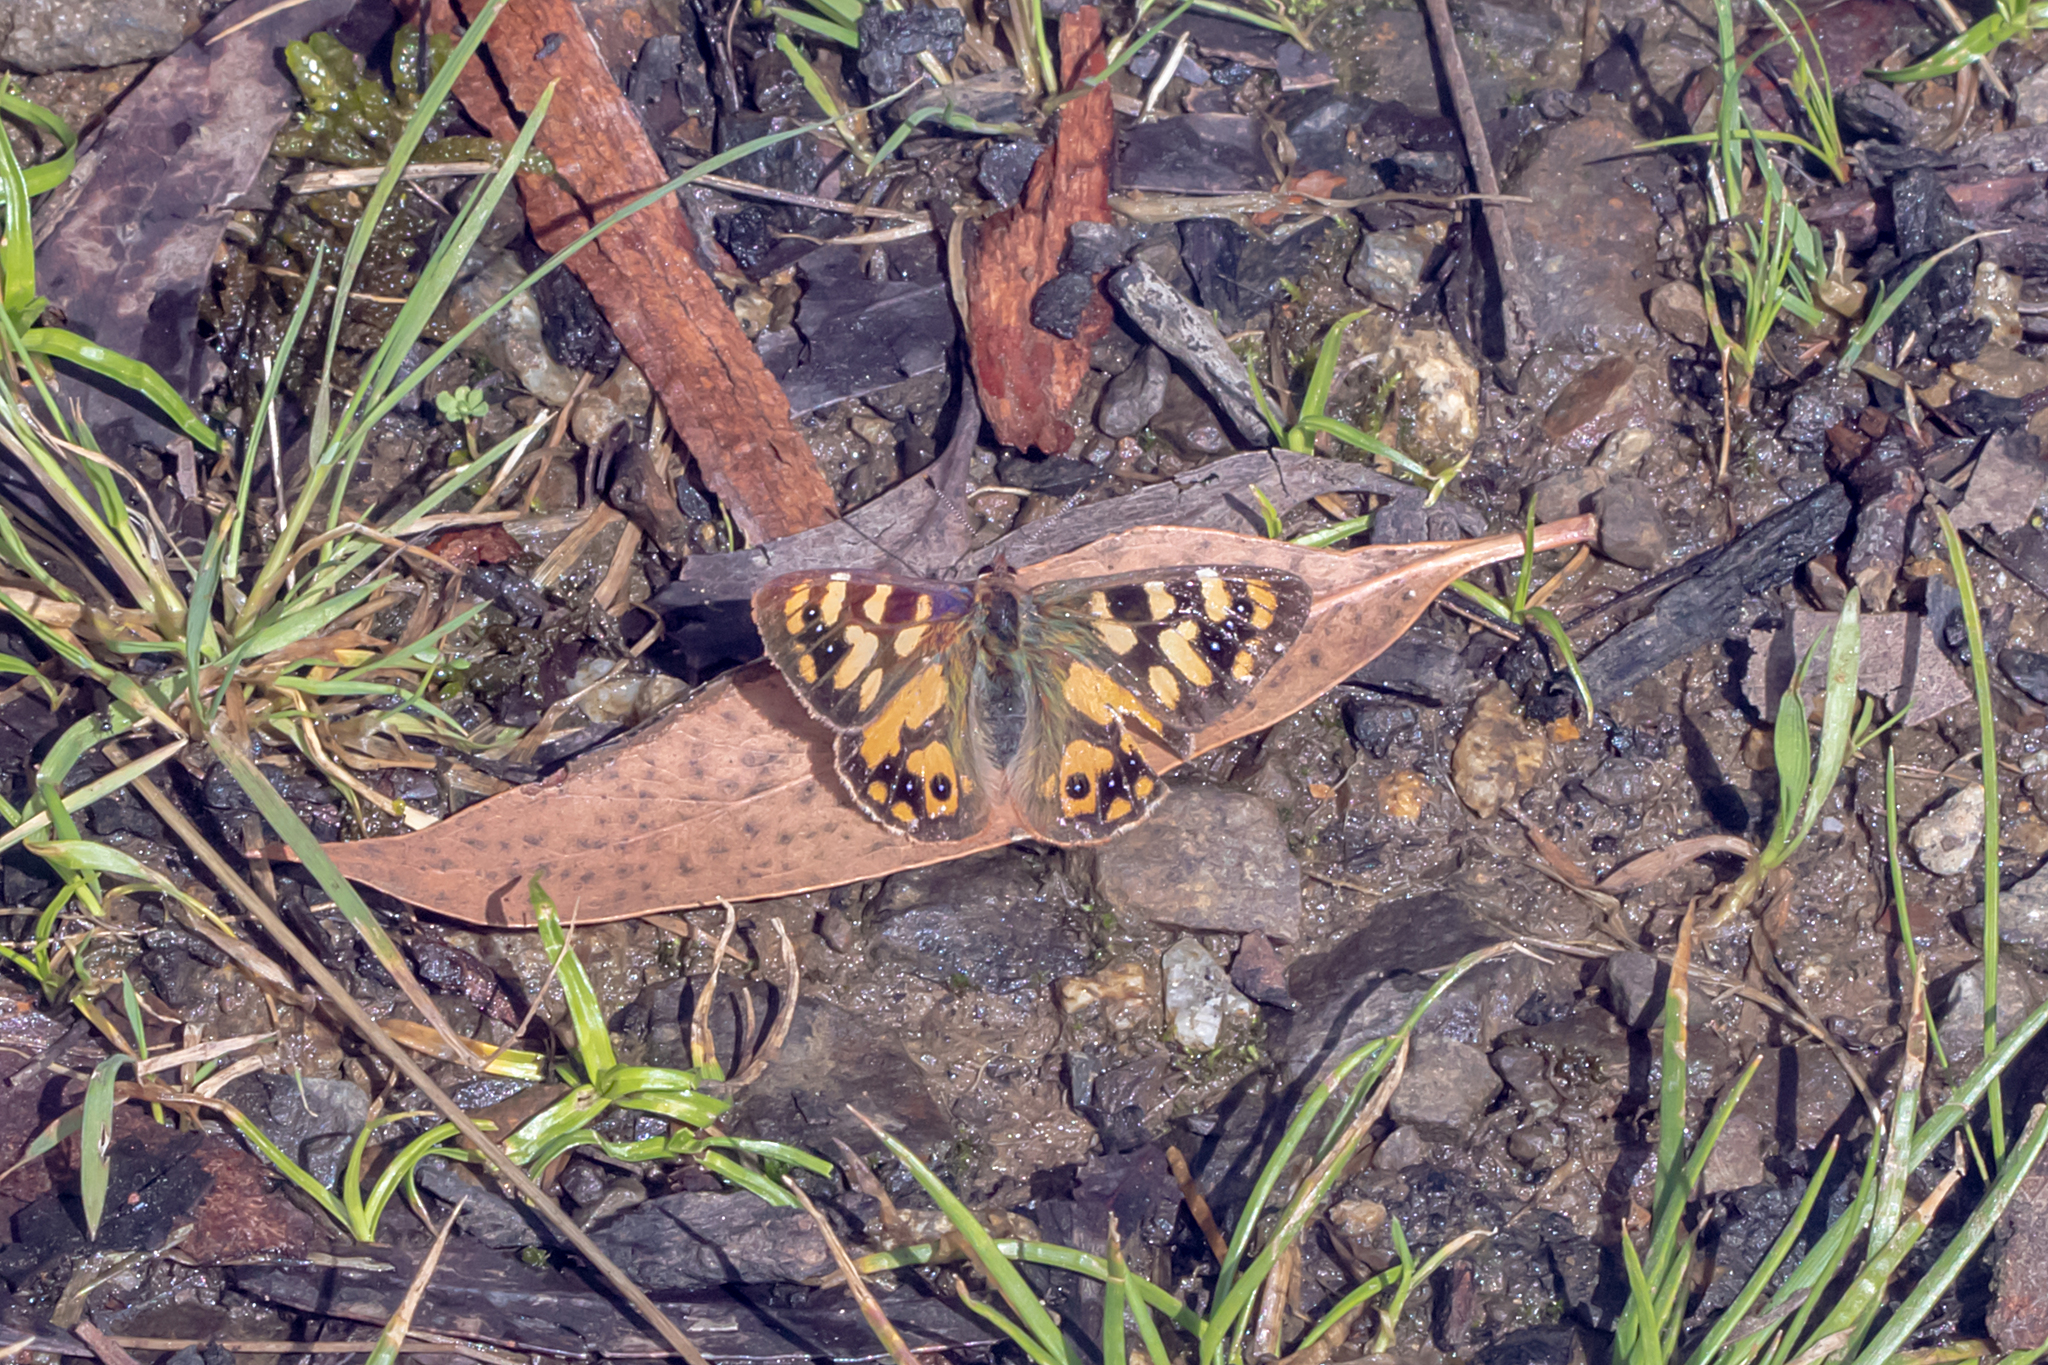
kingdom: Animalia
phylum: Arthropoda
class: Insecta
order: Lepidoptera
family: Nymphalidae
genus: Argynnina
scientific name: Argynnina cyrila
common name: Cyril's brown
